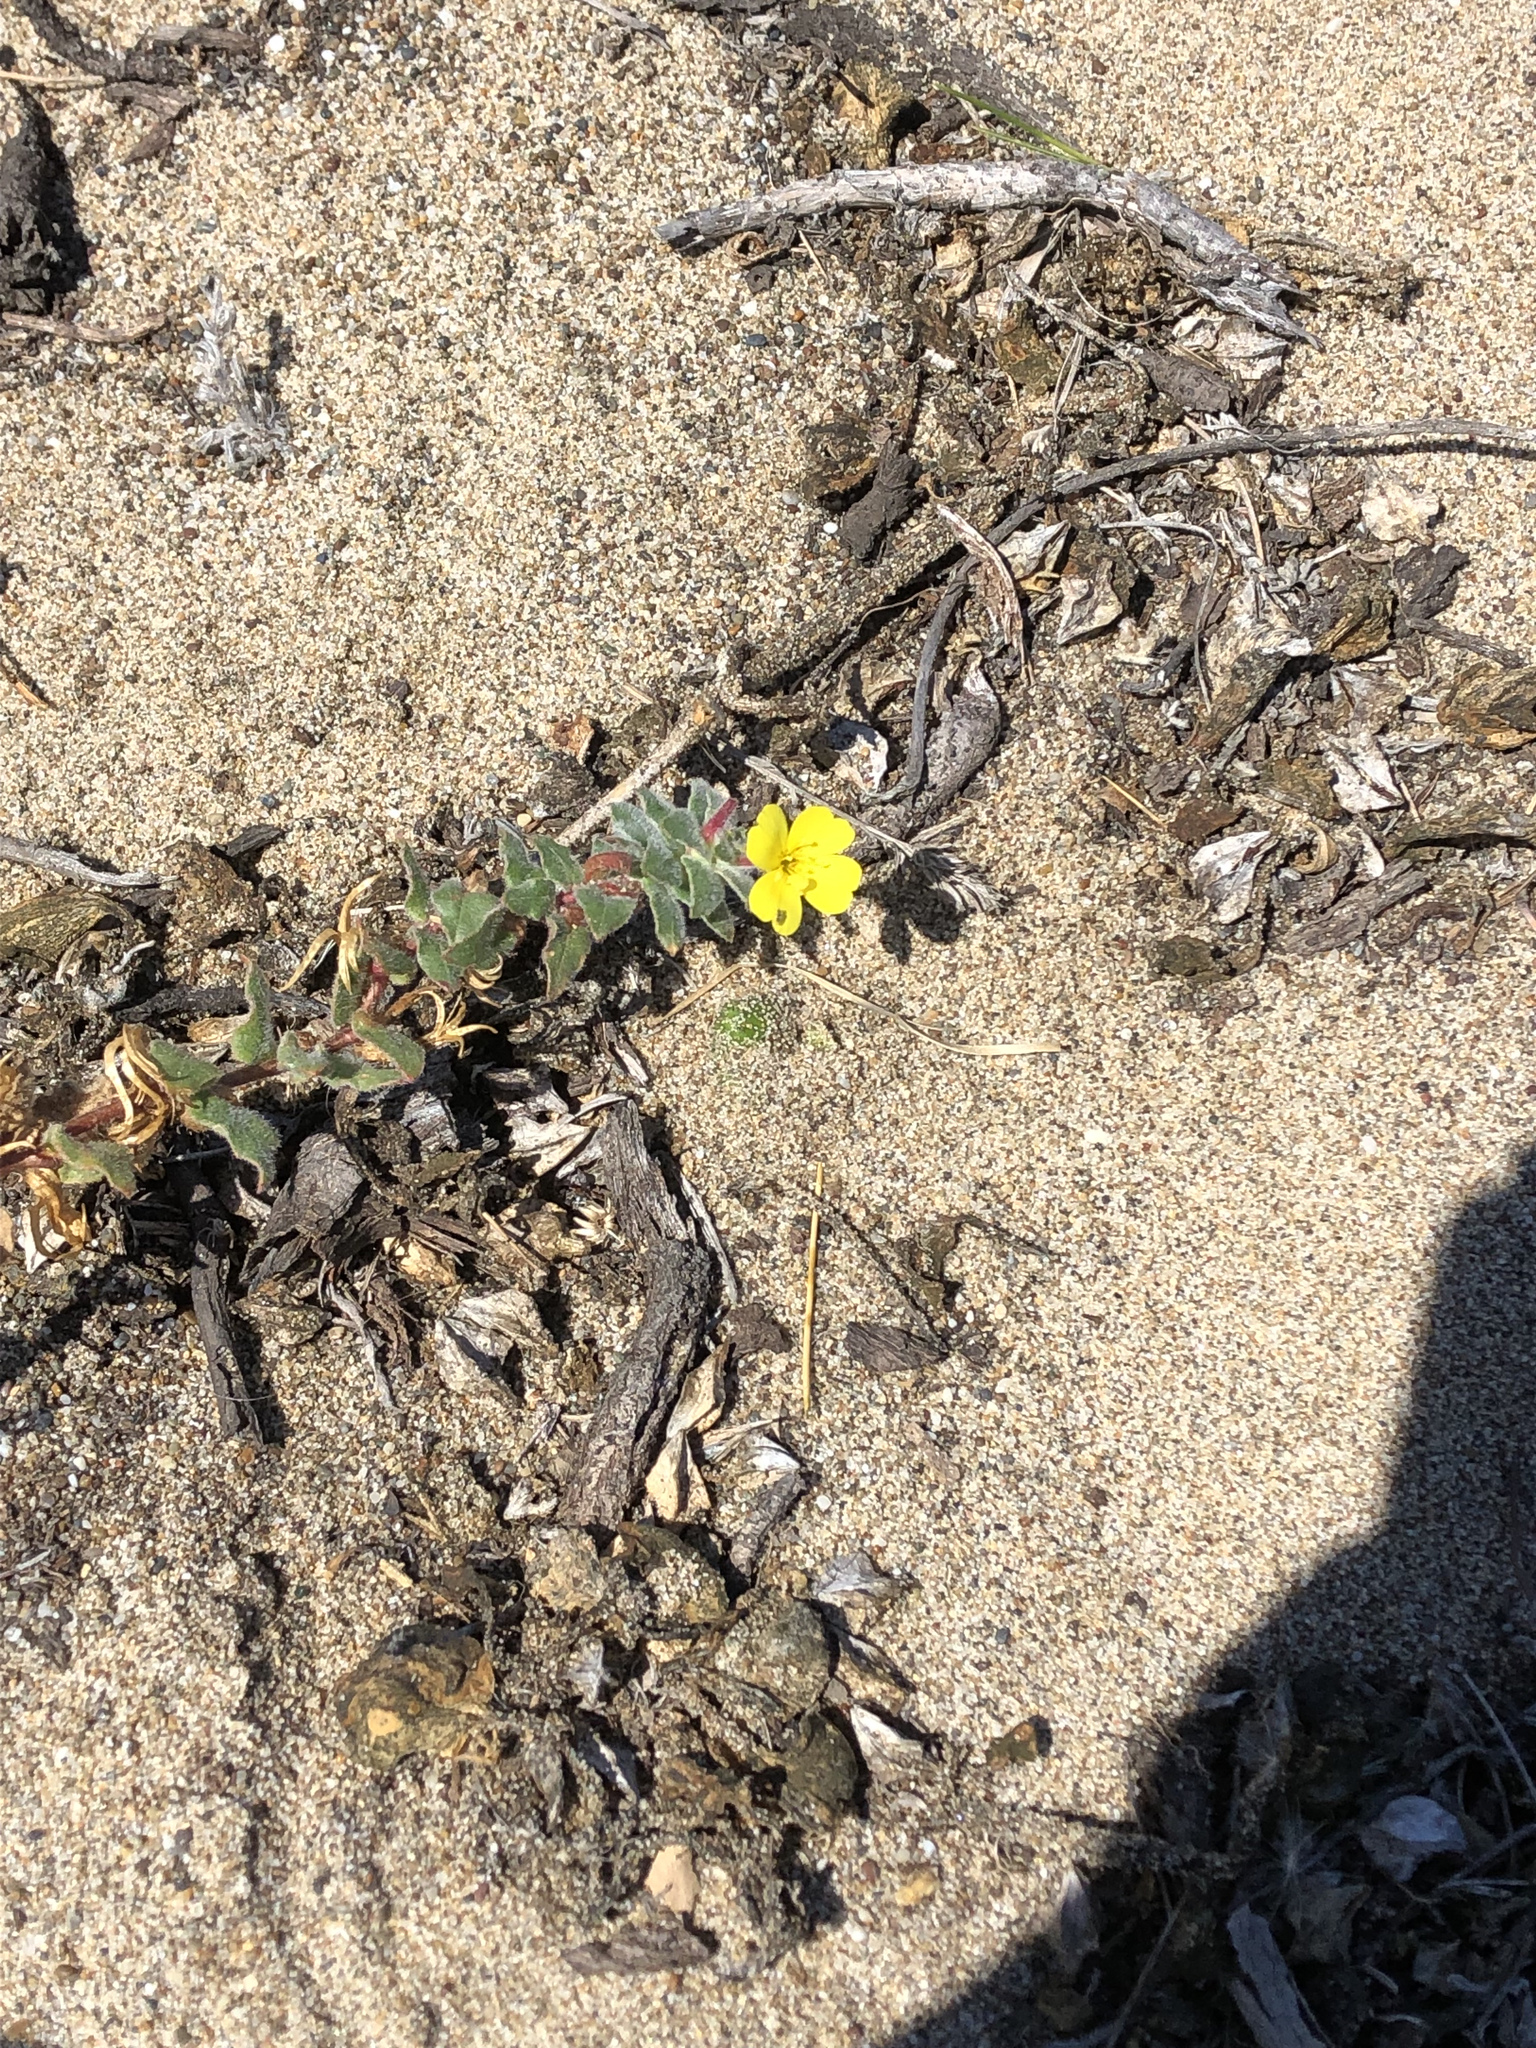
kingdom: Plantae
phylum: Tracheophyta
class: Magnoliopsida
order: Myrtales
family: Onagraceae
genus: Camissoniopsis
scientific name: Camissoniopsis cheiranthifolia
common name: Beach suncup
